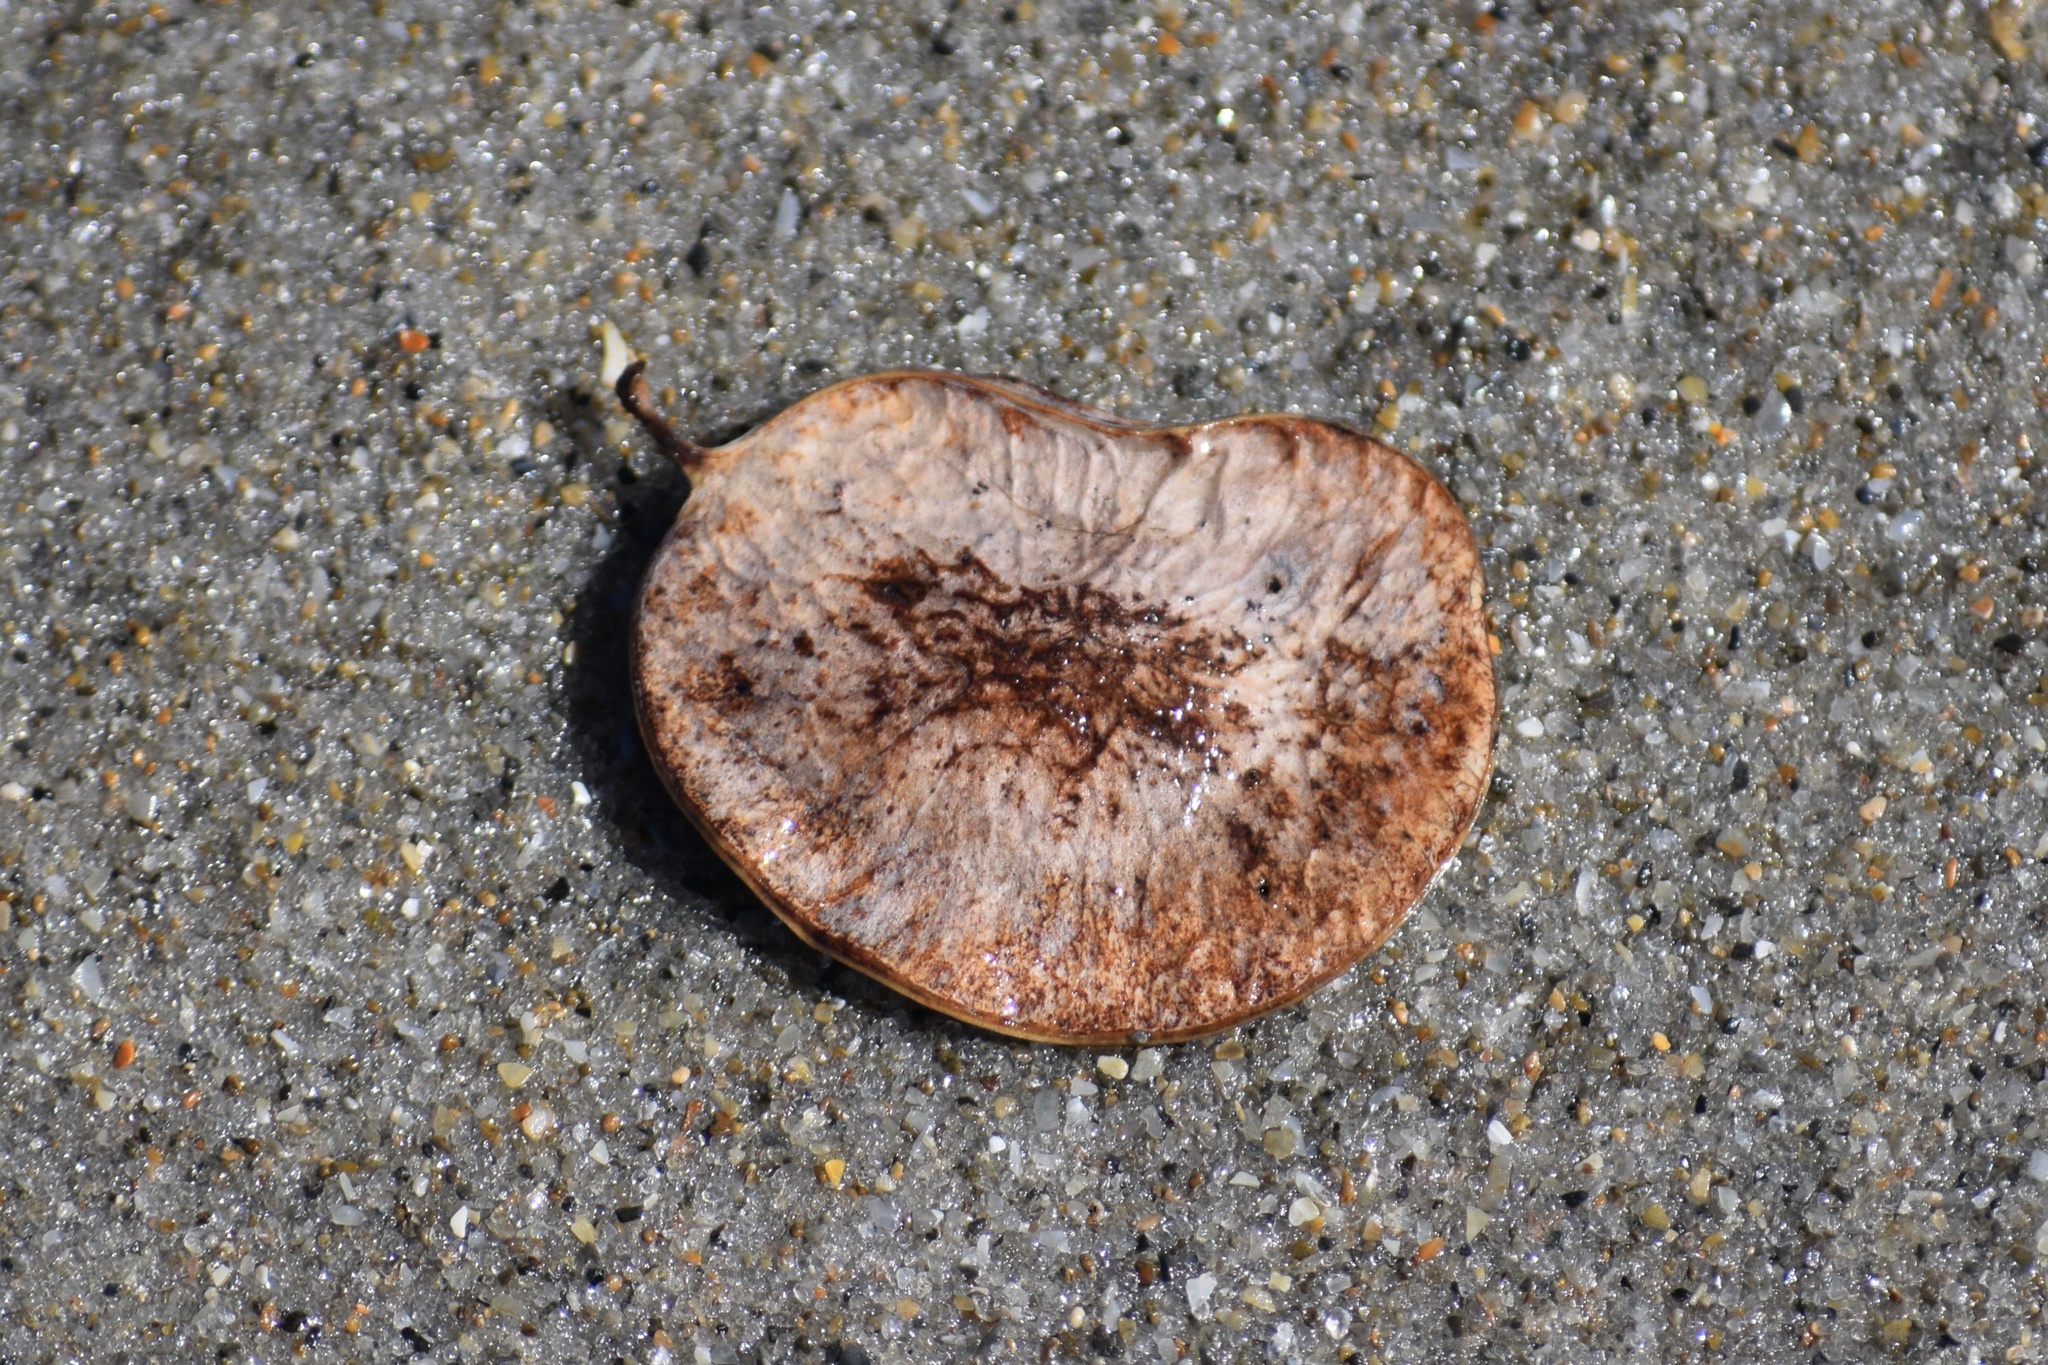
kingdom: Plantae
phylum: Tracheophyta
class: Magnoliopsida
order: Fabales
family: Fabaceae
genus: Dalbergia
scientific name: Dalbergia ecastaphyllum
